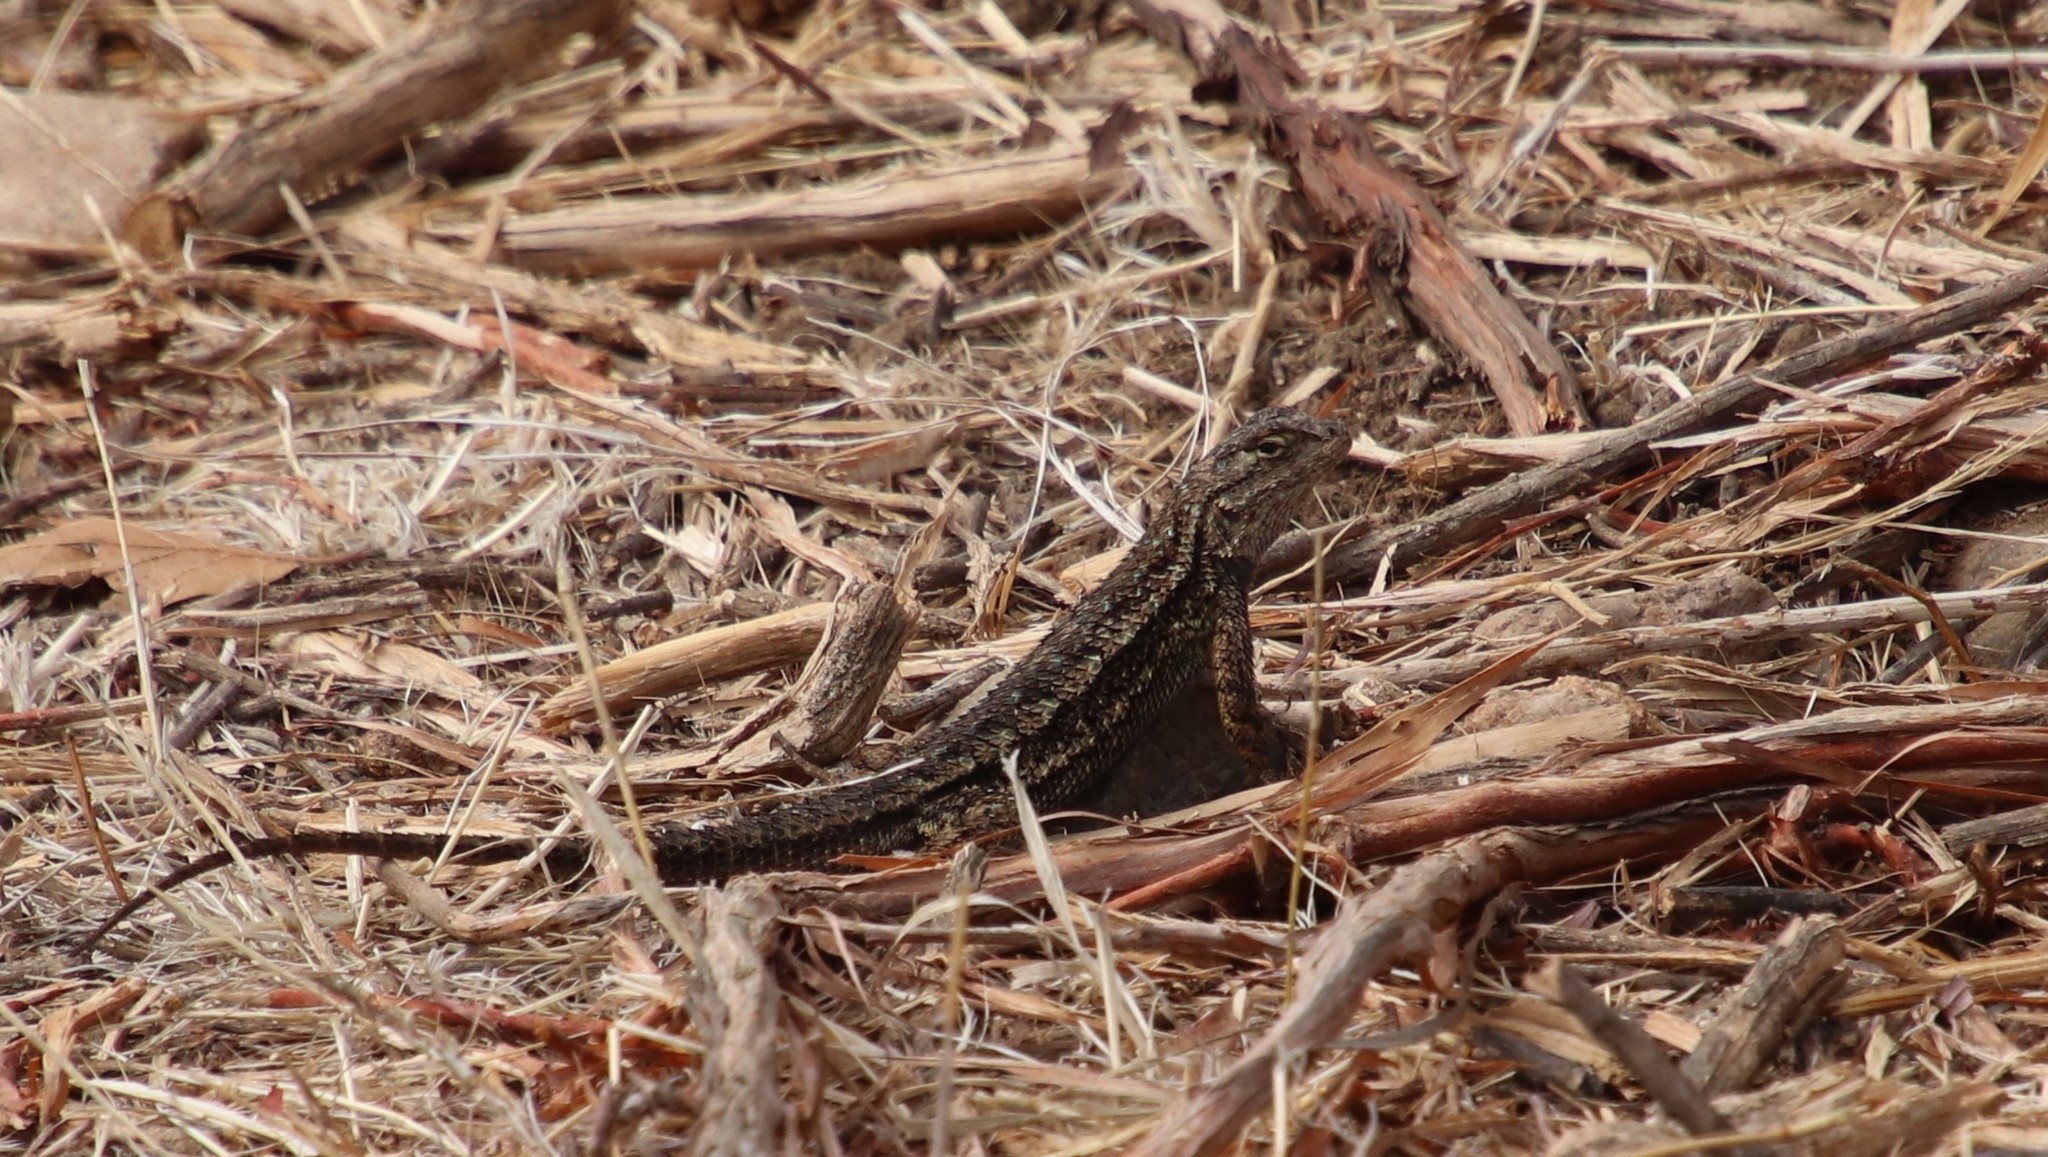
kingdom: Animalia
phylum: Chordata
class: Squamata
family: Phrynosomatidae
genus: Sceloporus
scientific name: Sceloporus occidentalis
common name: Western fence lizard
